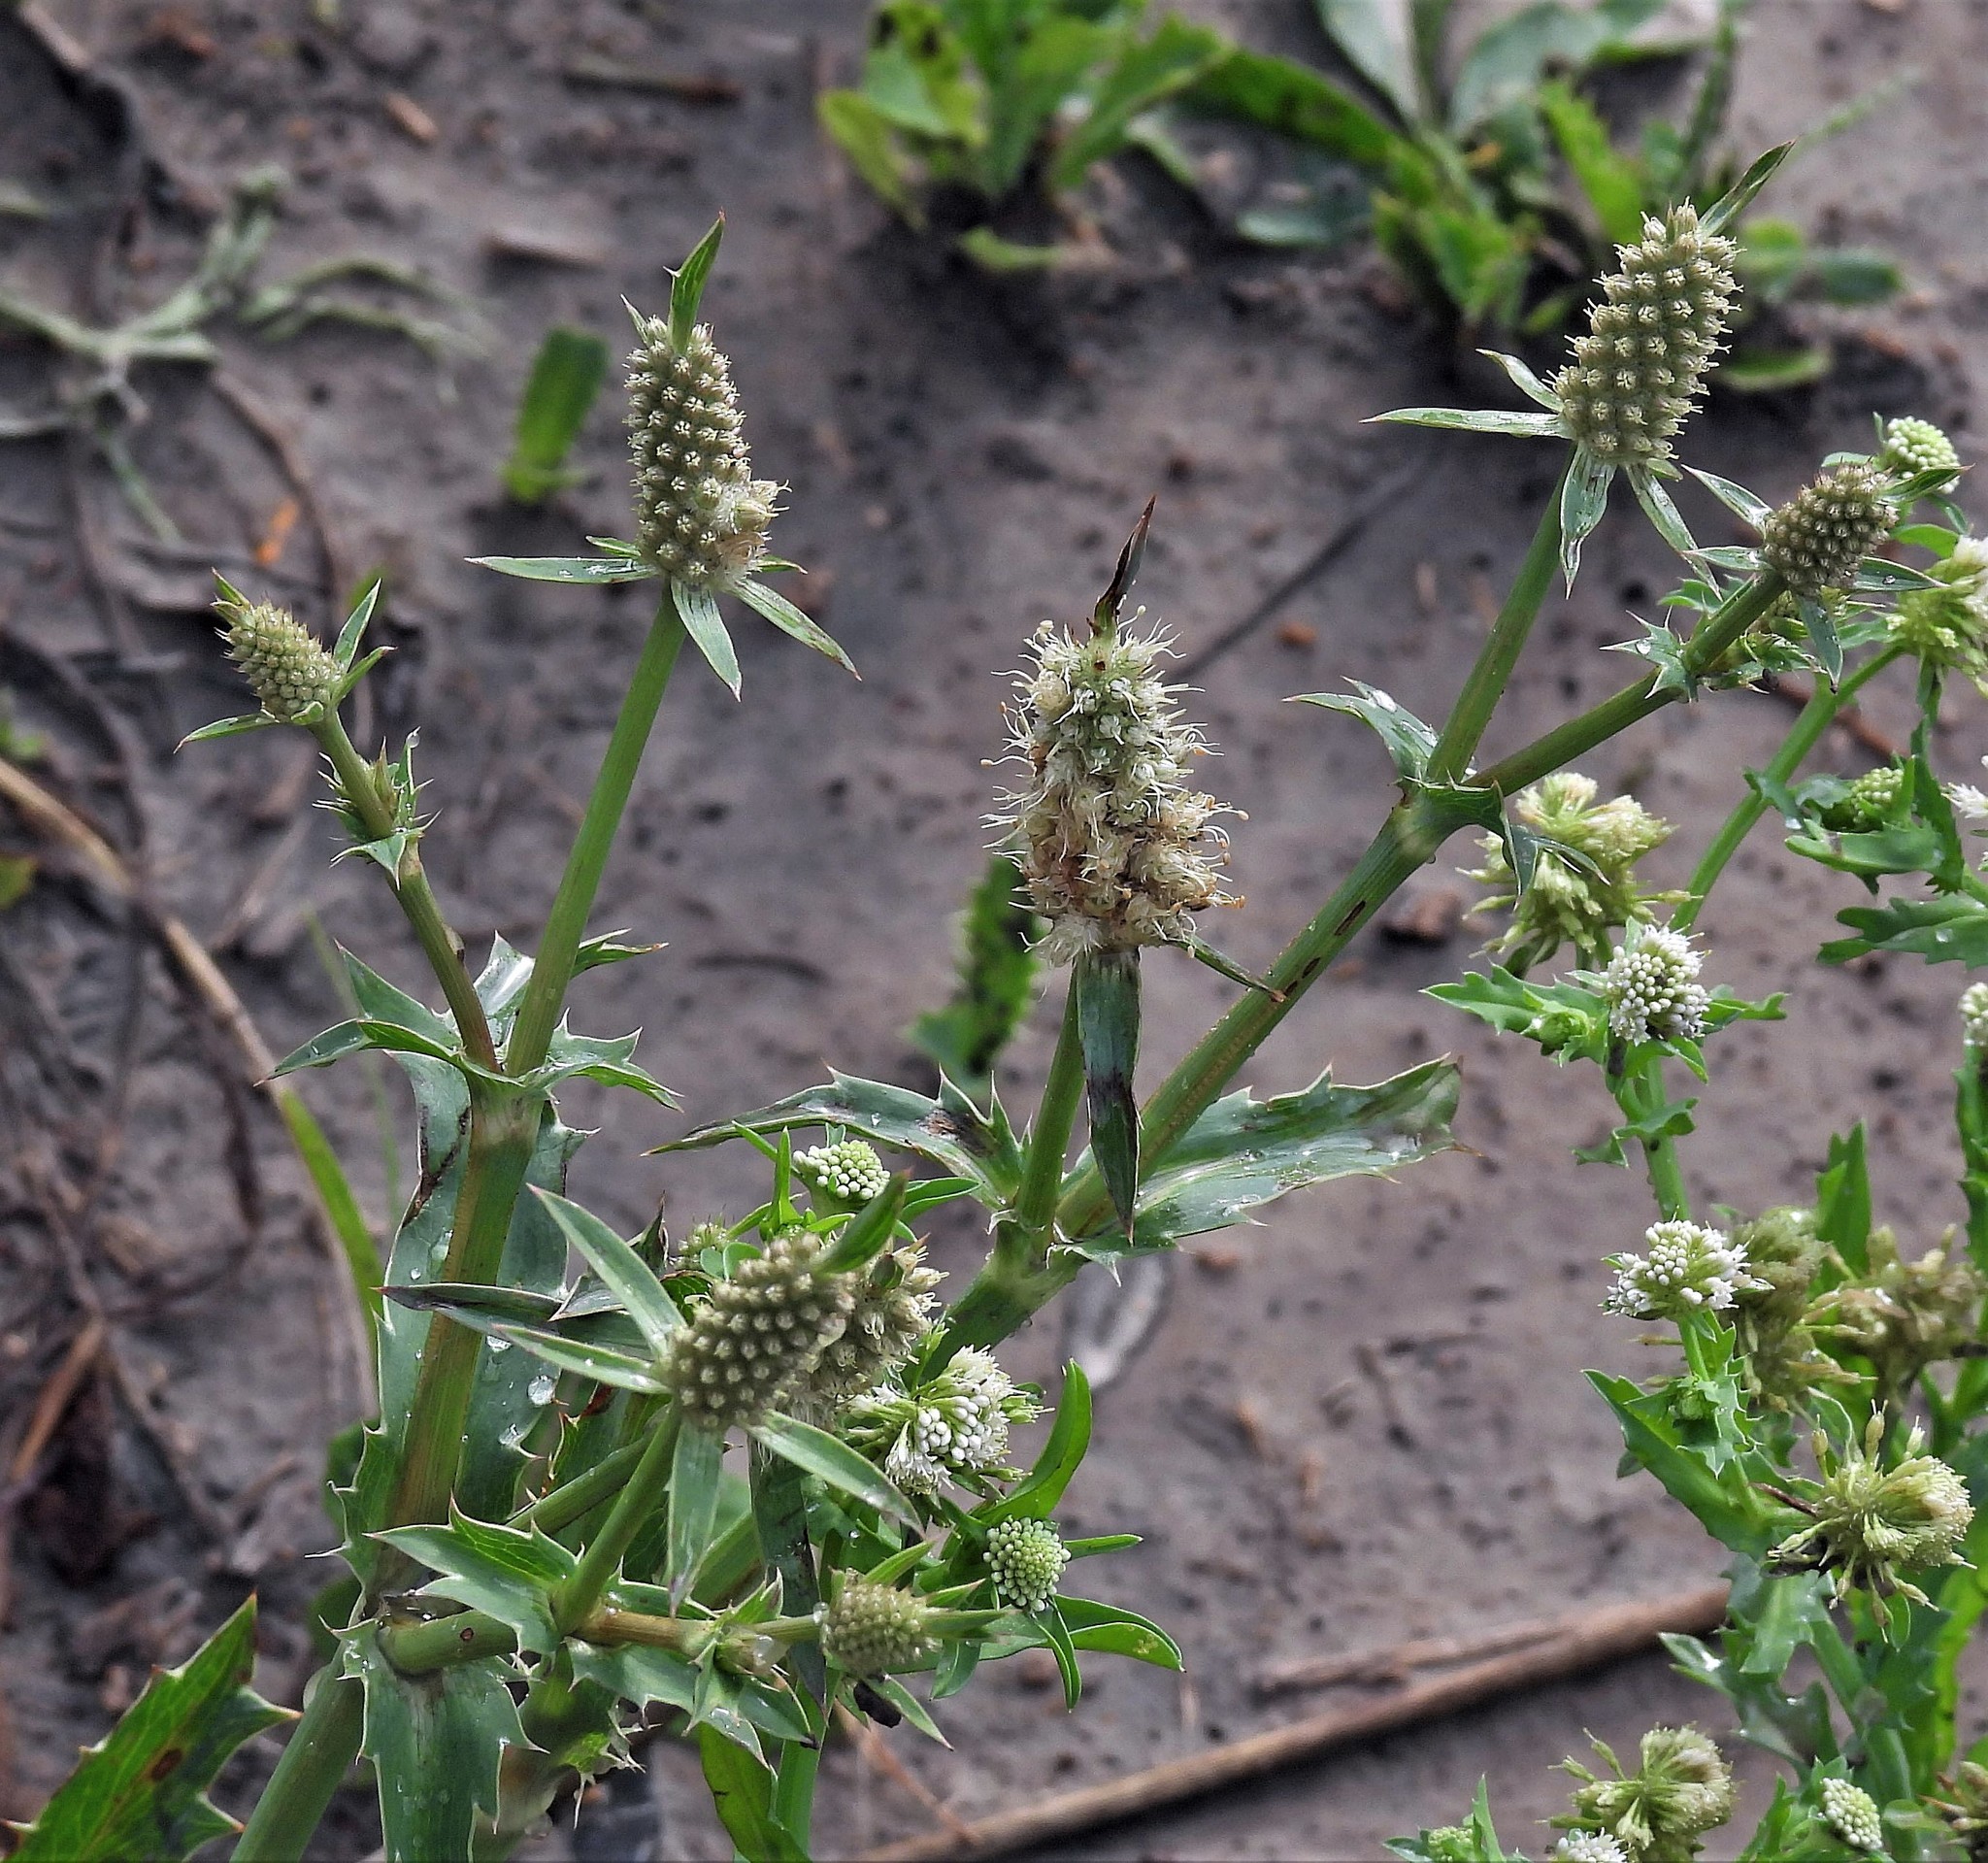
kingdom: Plantae
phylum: Tracheophyta
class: Magnoliopsida
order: Apiales
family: Apiaceae
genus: Eryngium
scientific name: Eryngium coronatum
